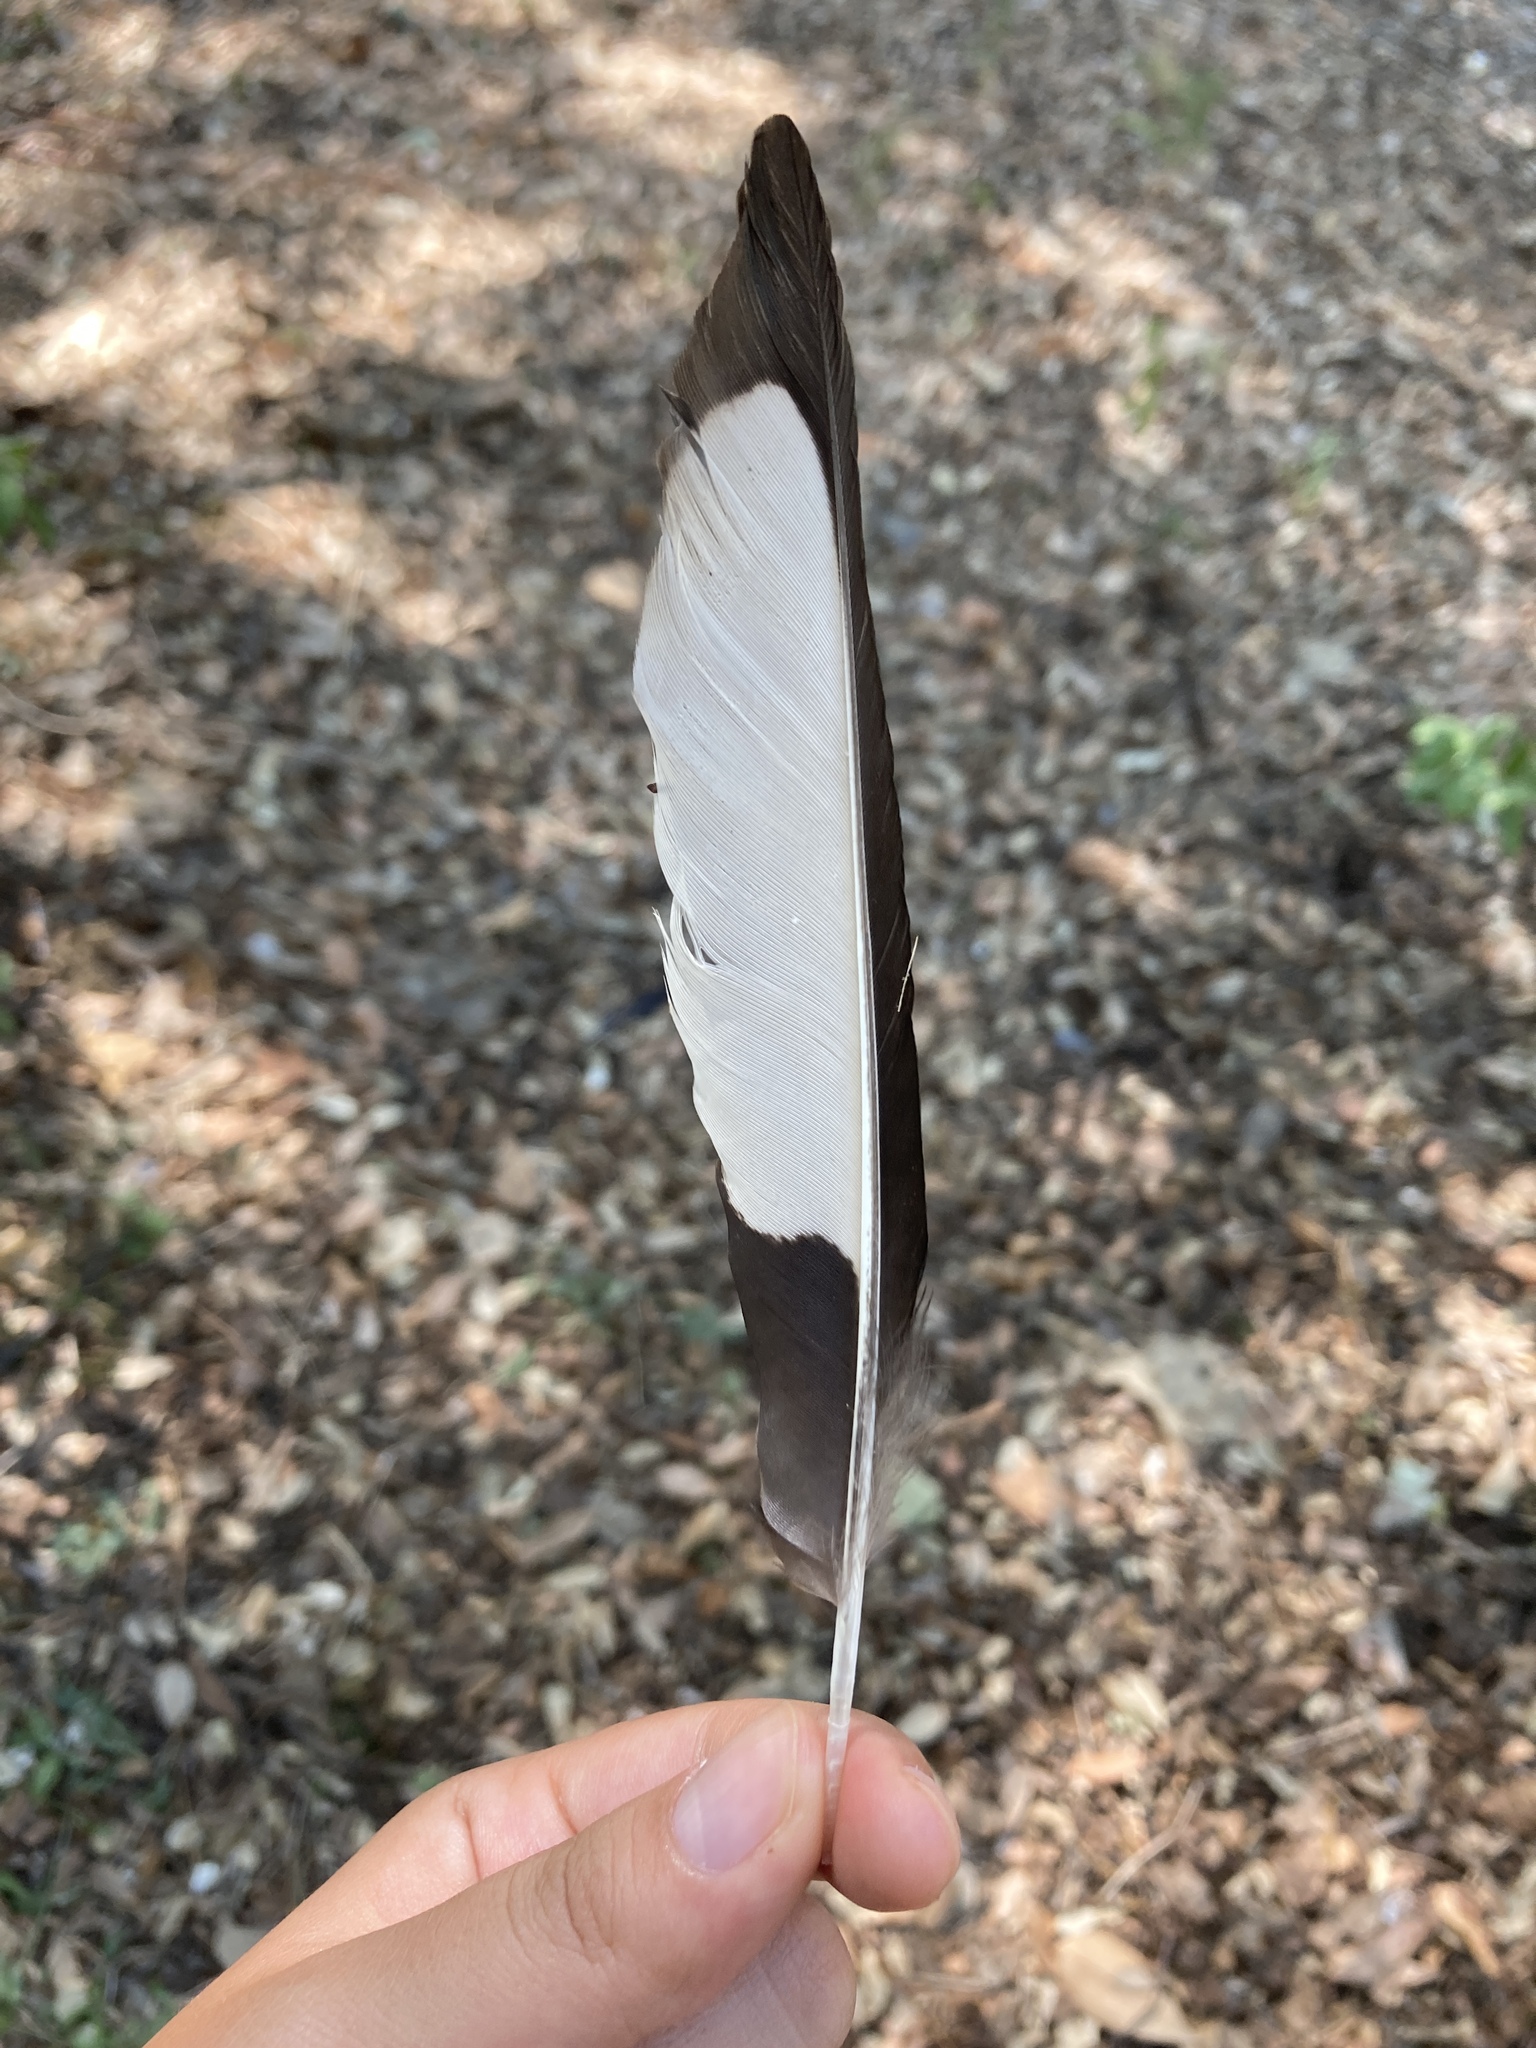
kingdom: Animalia
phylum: Chordata
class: Aves
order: Passeriformes
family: Corvidae
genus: Pica
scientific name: Pica pica
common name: Eurasian magpie
